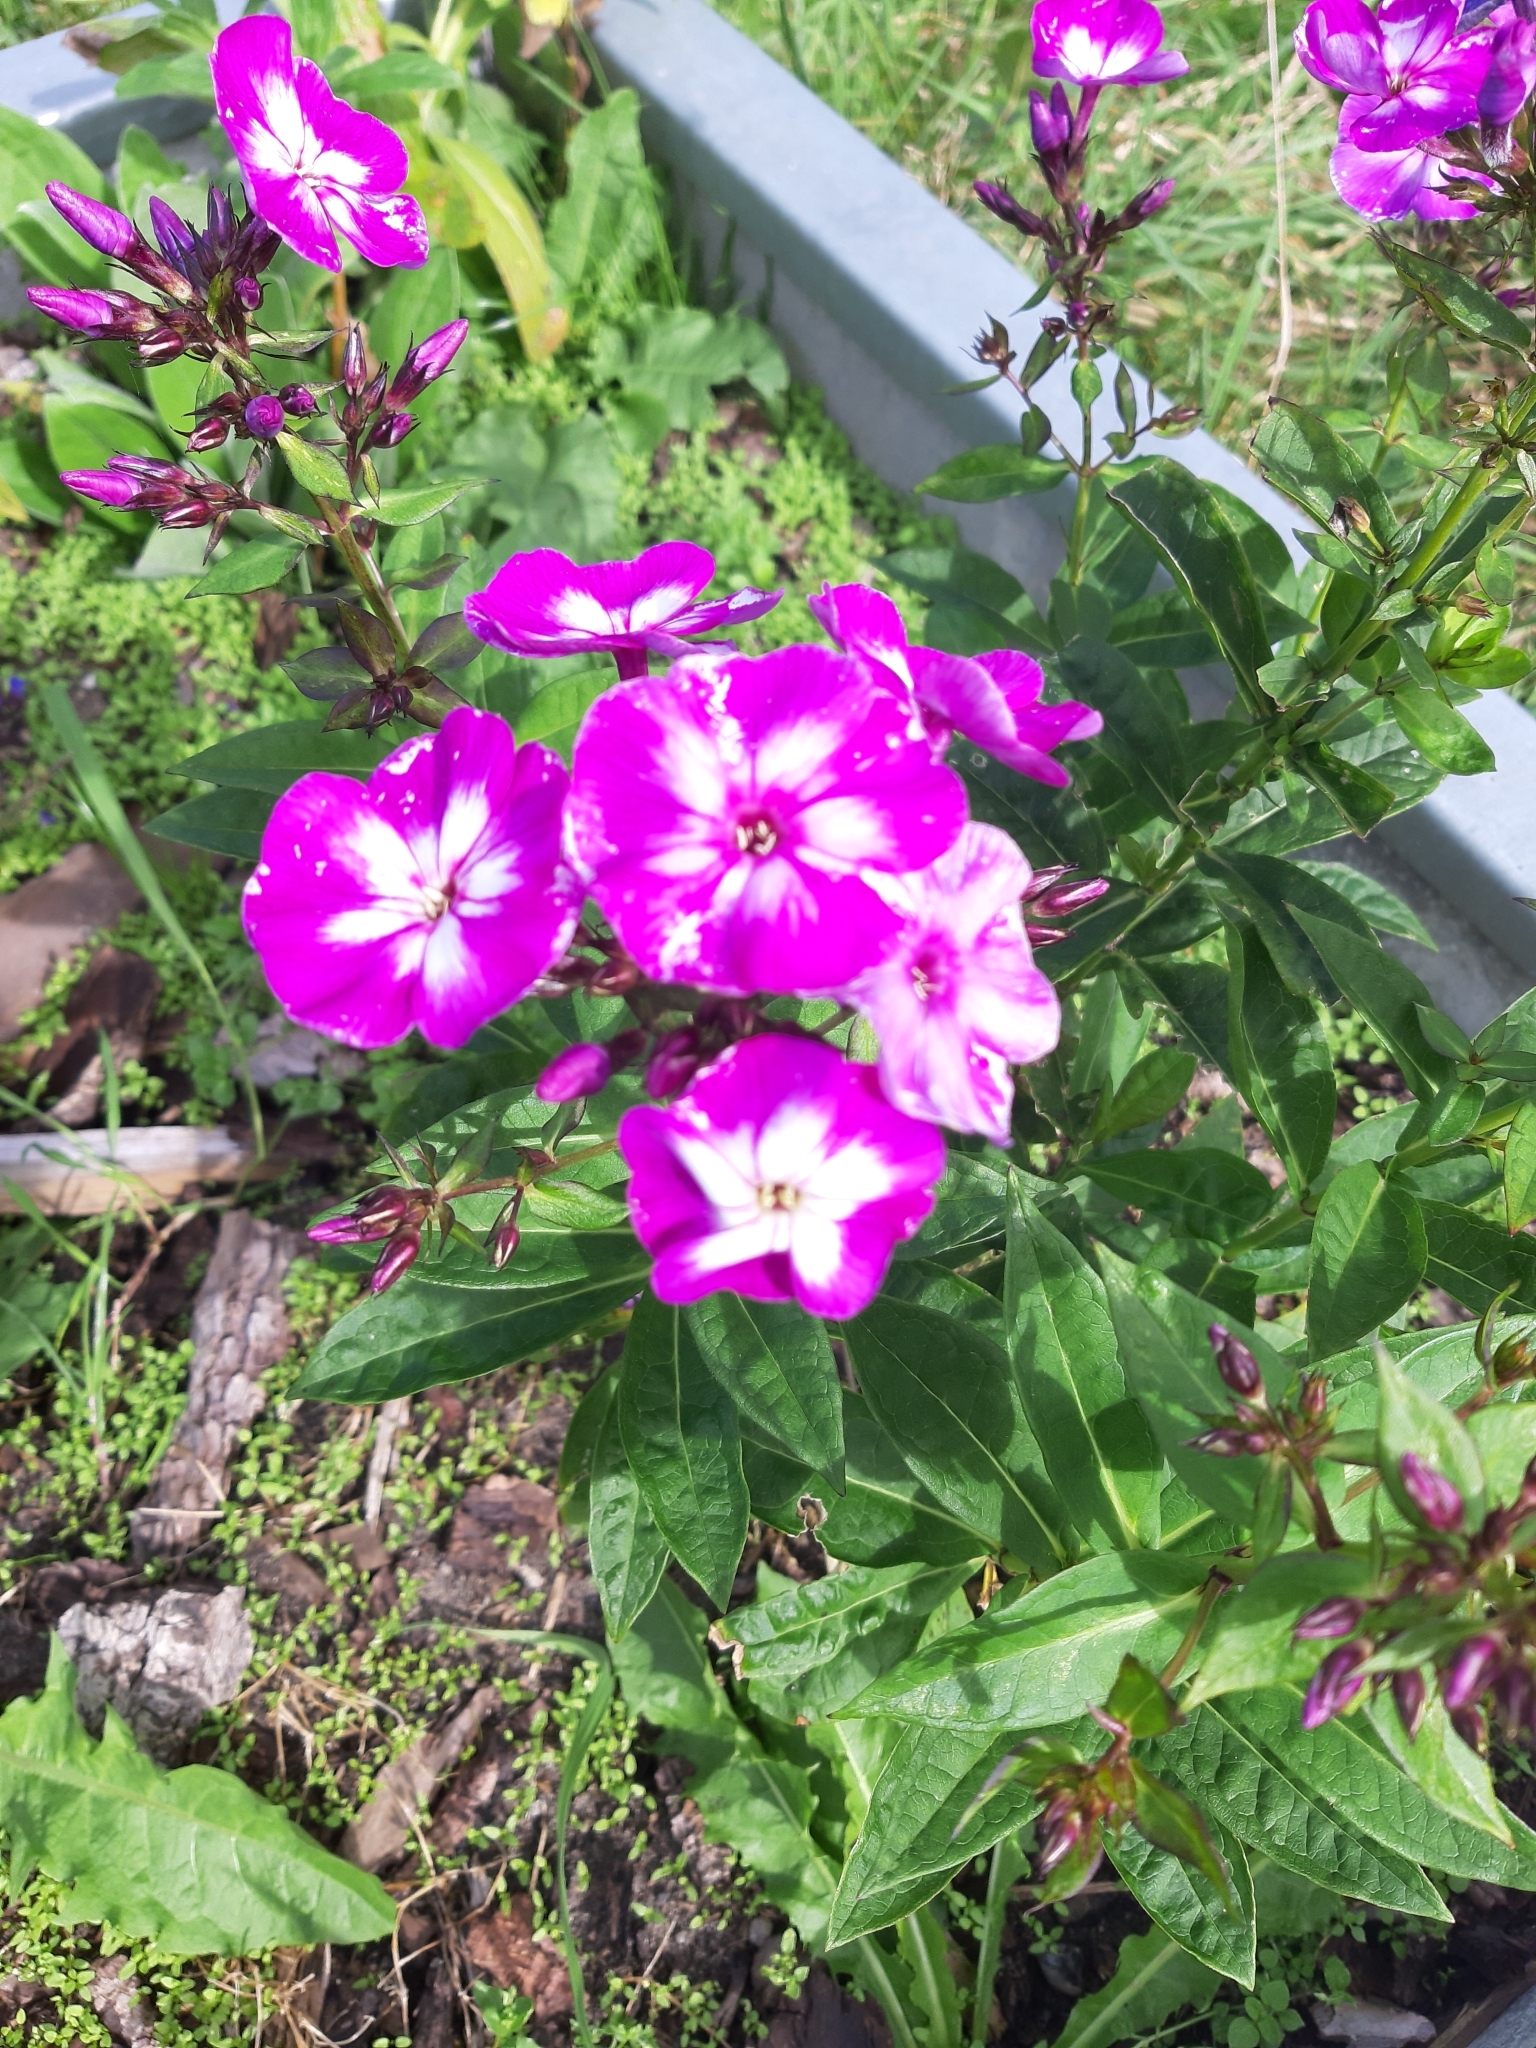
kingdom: Plantae
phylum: Tracheophyta
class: Magnoliopsida
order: Ericales
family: Polemoniaceae
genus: Phlox
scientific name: Phlox paniculata
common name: Fall phlox
